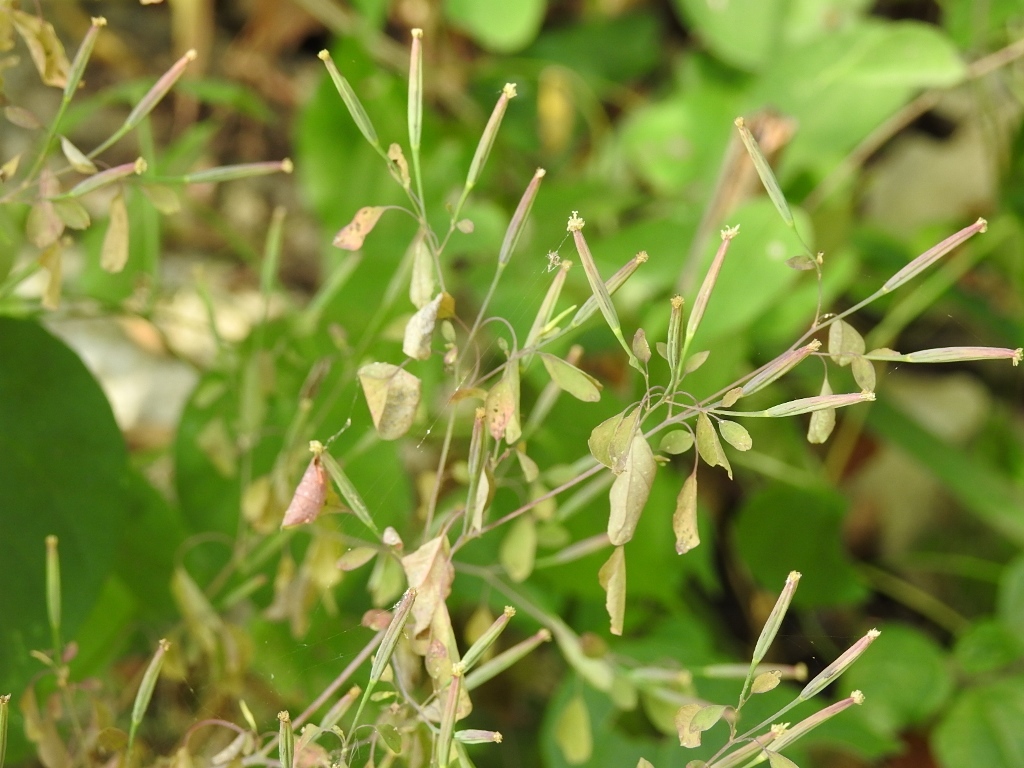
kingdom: Plantae
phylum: Tracheophyta
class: Magnoliopsida
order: Asterales
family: Asteraceae
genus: Porophyllum
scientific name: Porophyllum ruderale
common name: Yerba porosa
